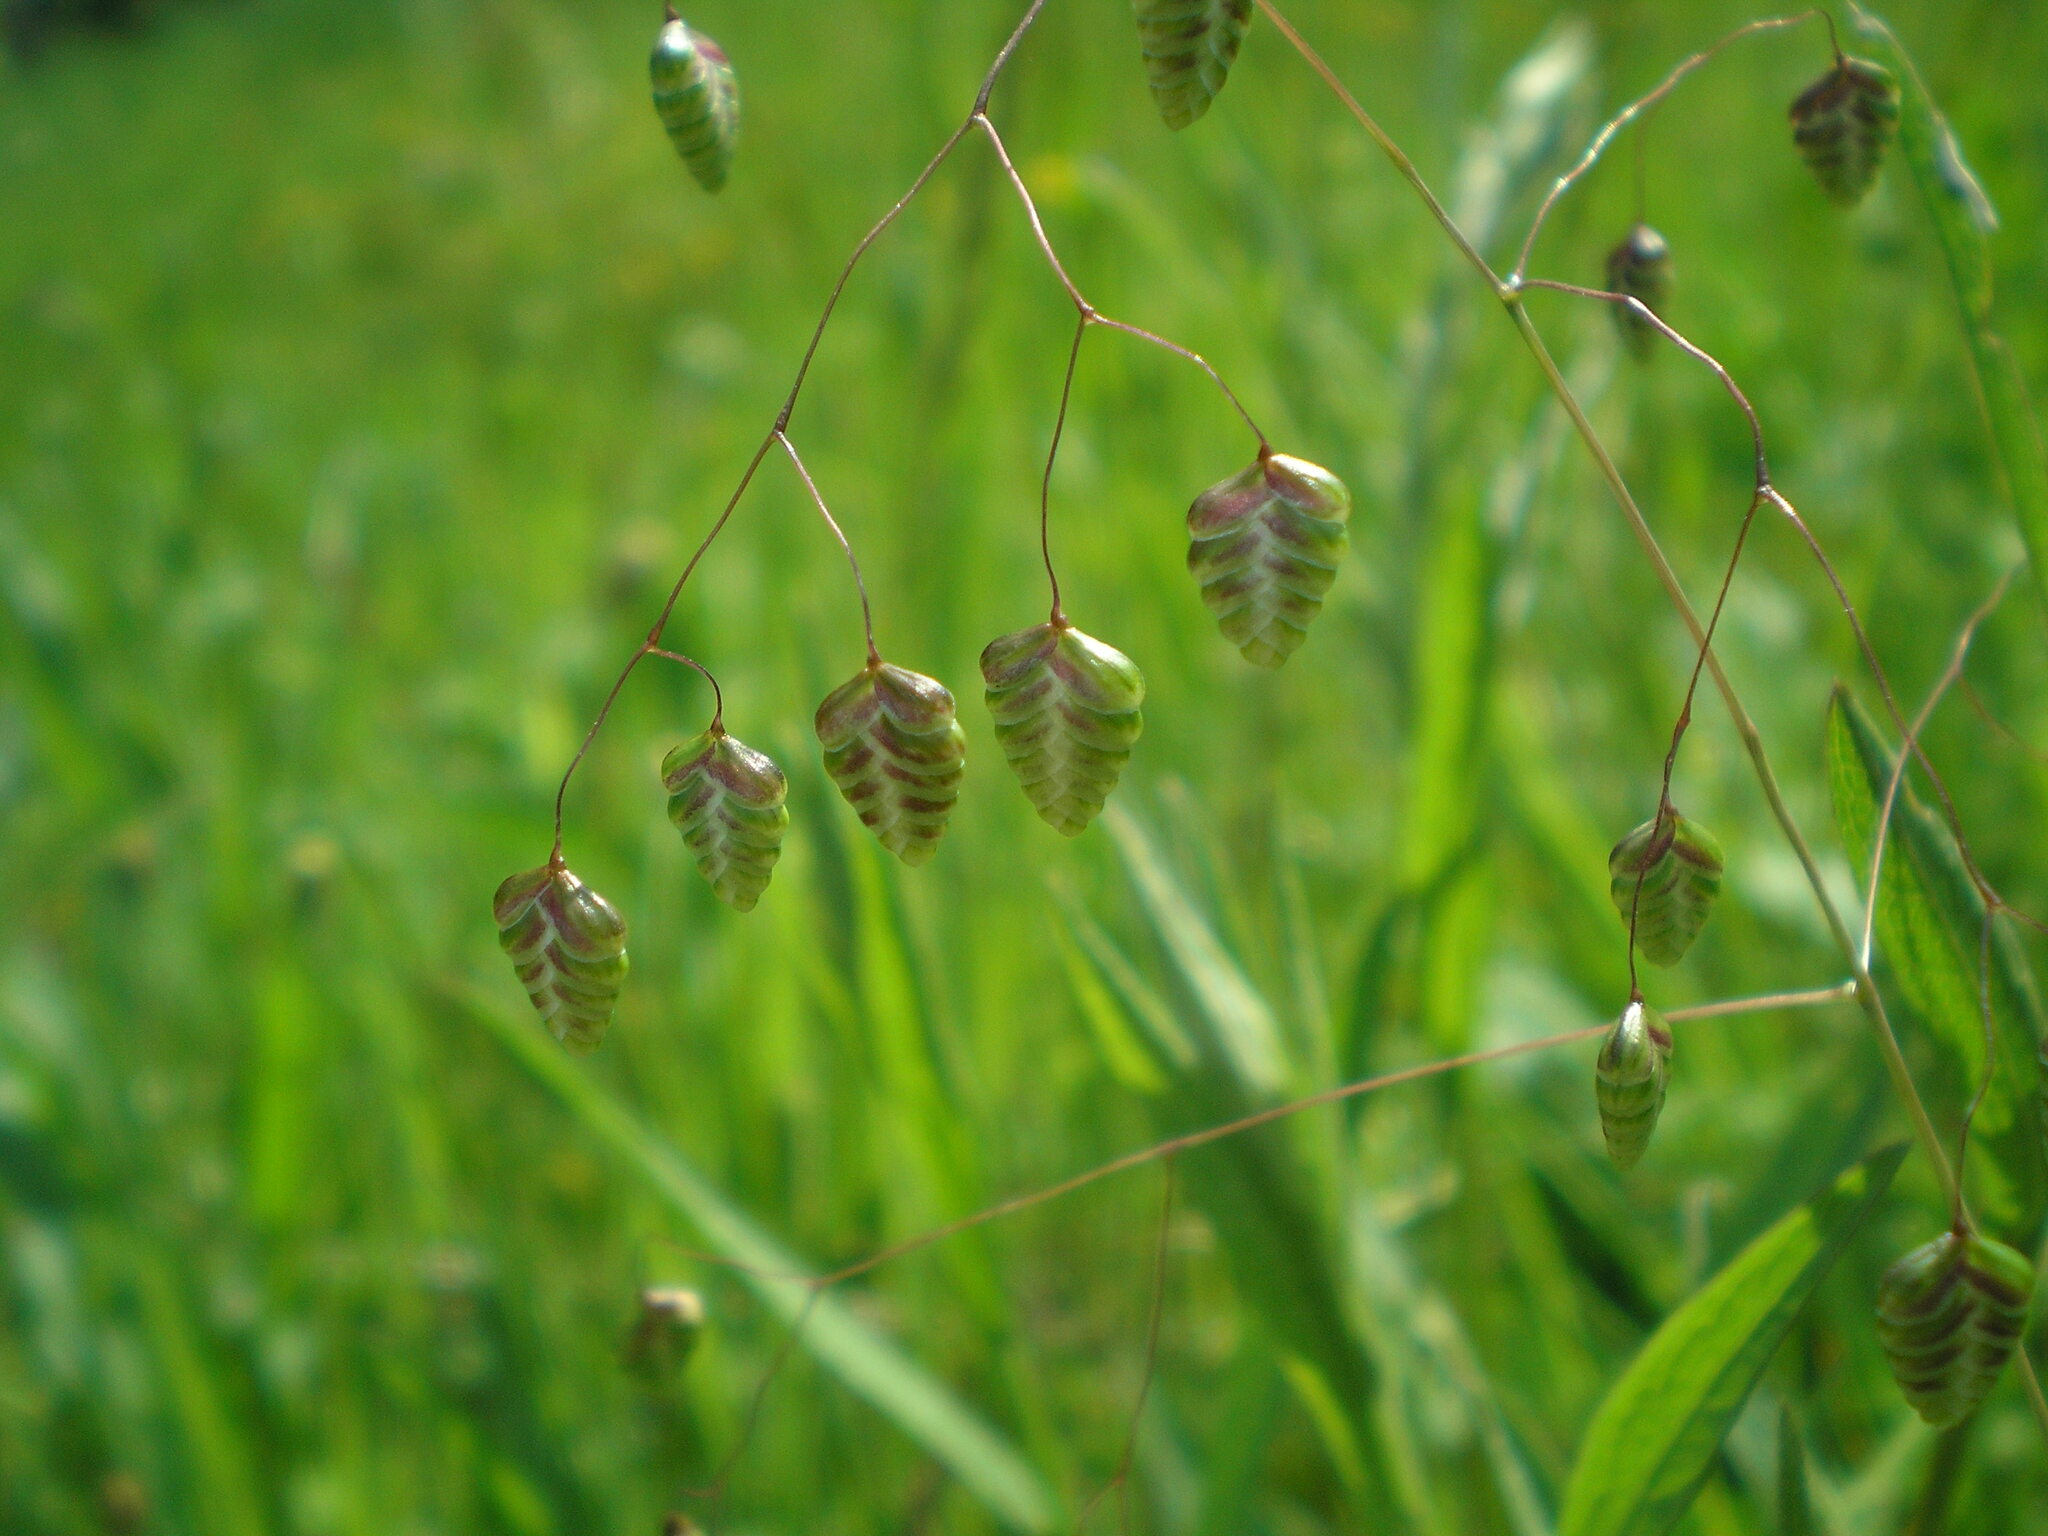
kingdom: Plantae
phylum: Tracheophyta
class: Liliopsida
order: Poales
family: Poaceae
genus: Briza
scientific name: Briza media
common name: Quaking grass
